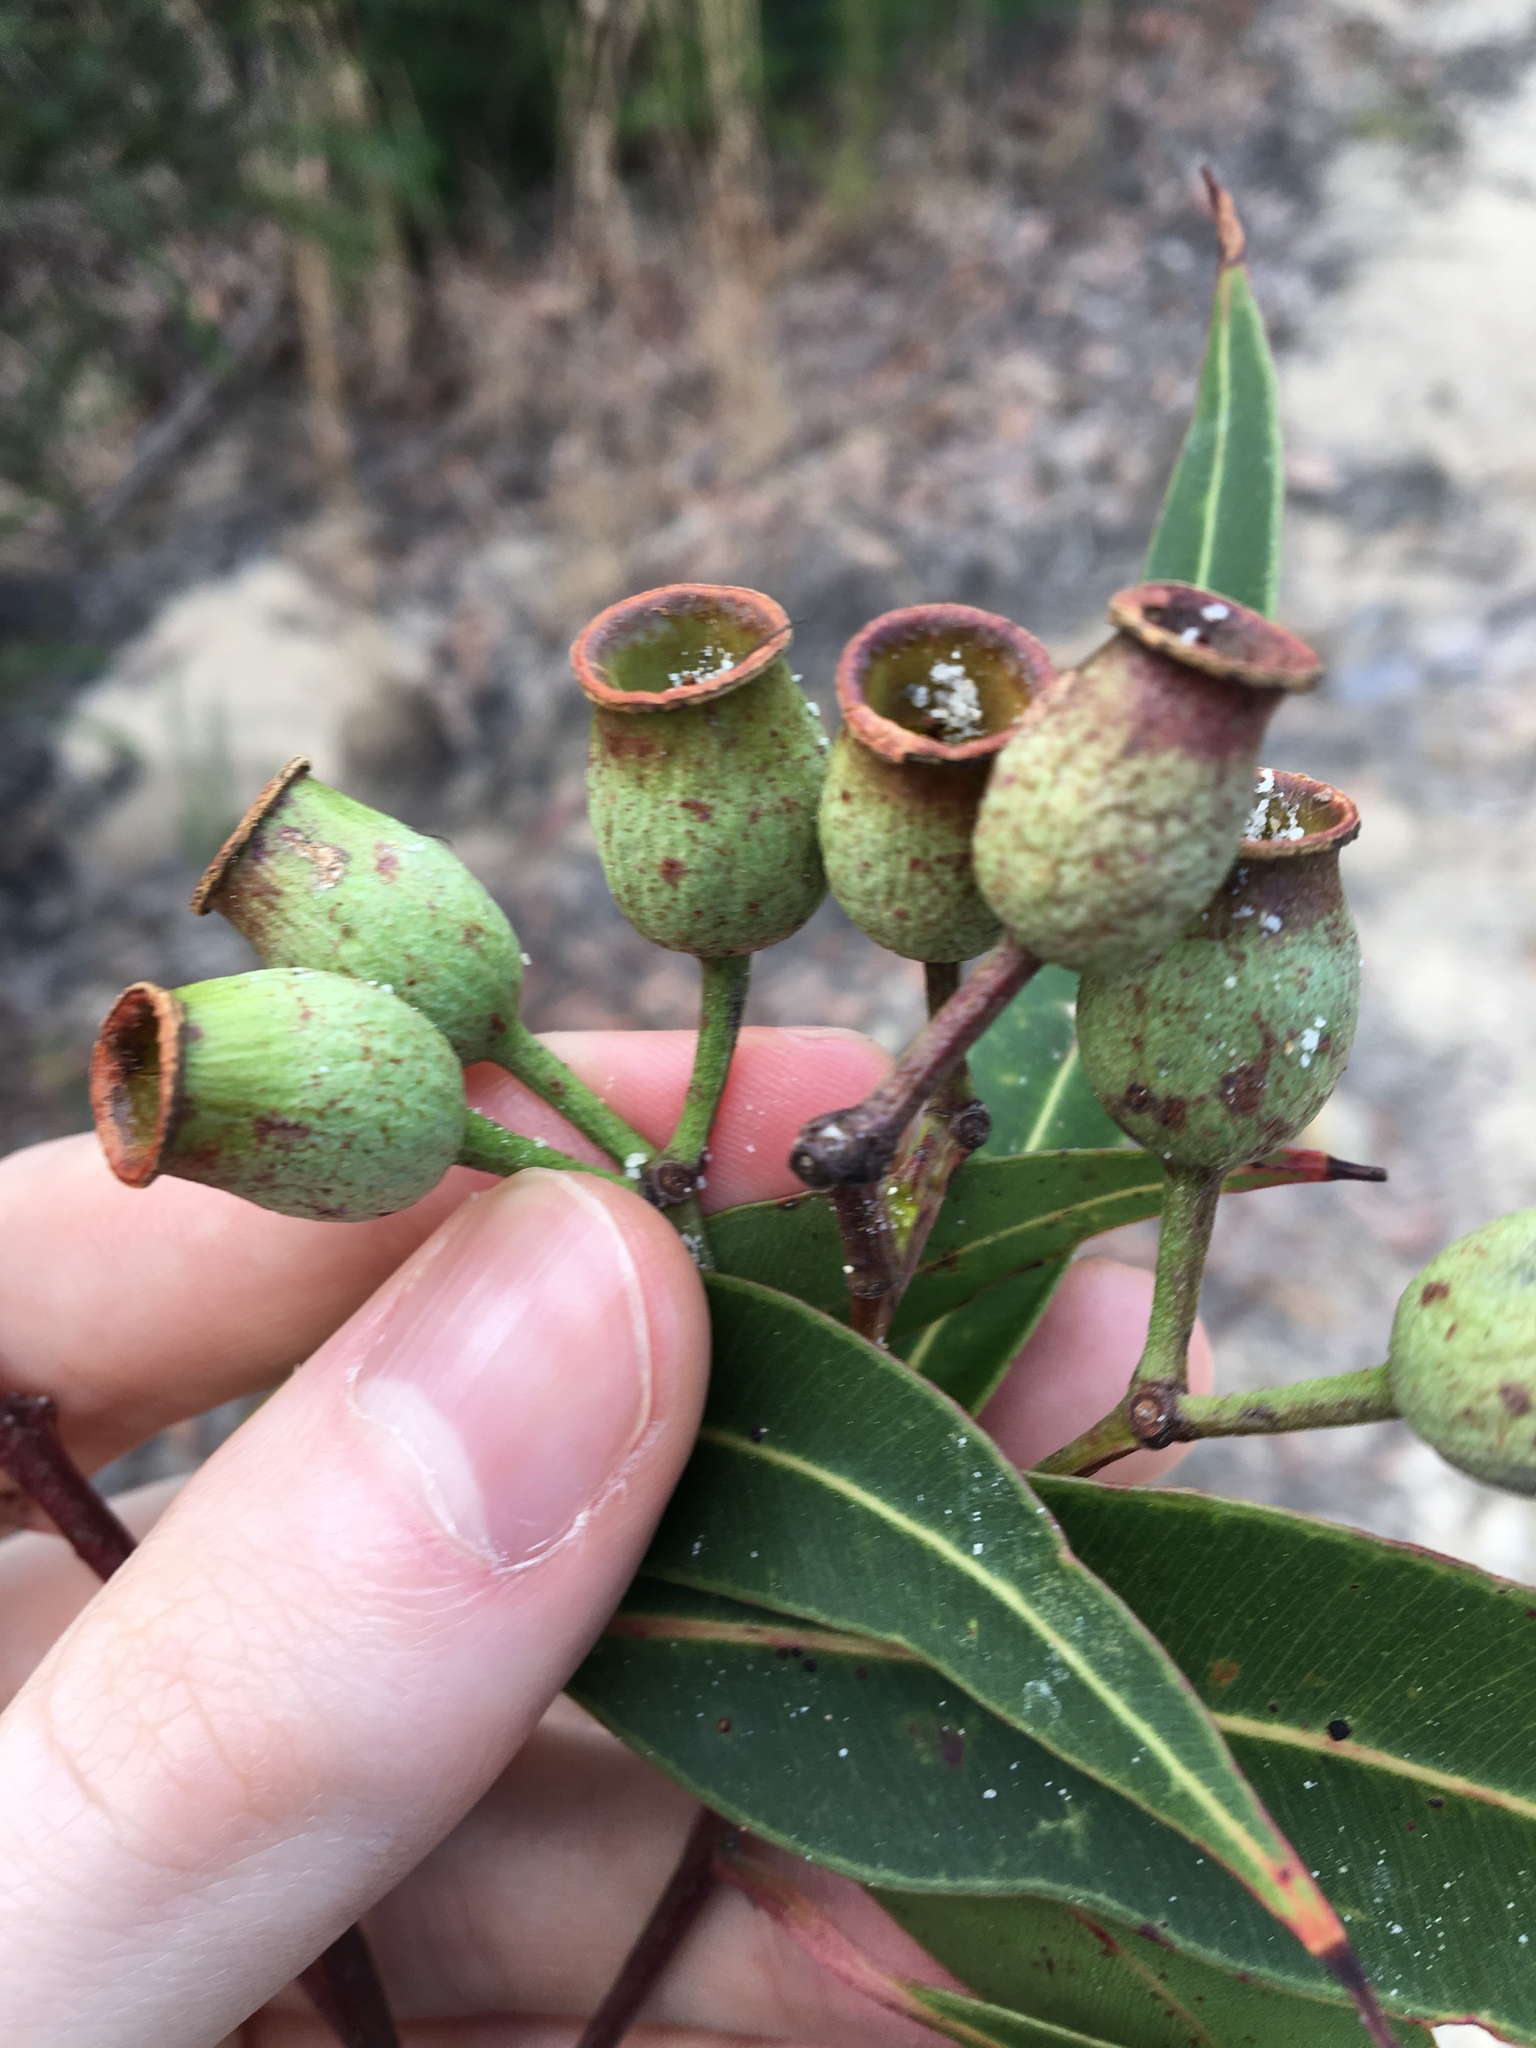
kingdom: Plantae
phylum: Tracheophyta
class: Magnoliopsida
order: Myrtales
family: Myrtaceae
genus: Corymbia
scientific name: Corymbia gummifera
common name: Red bloodwood
